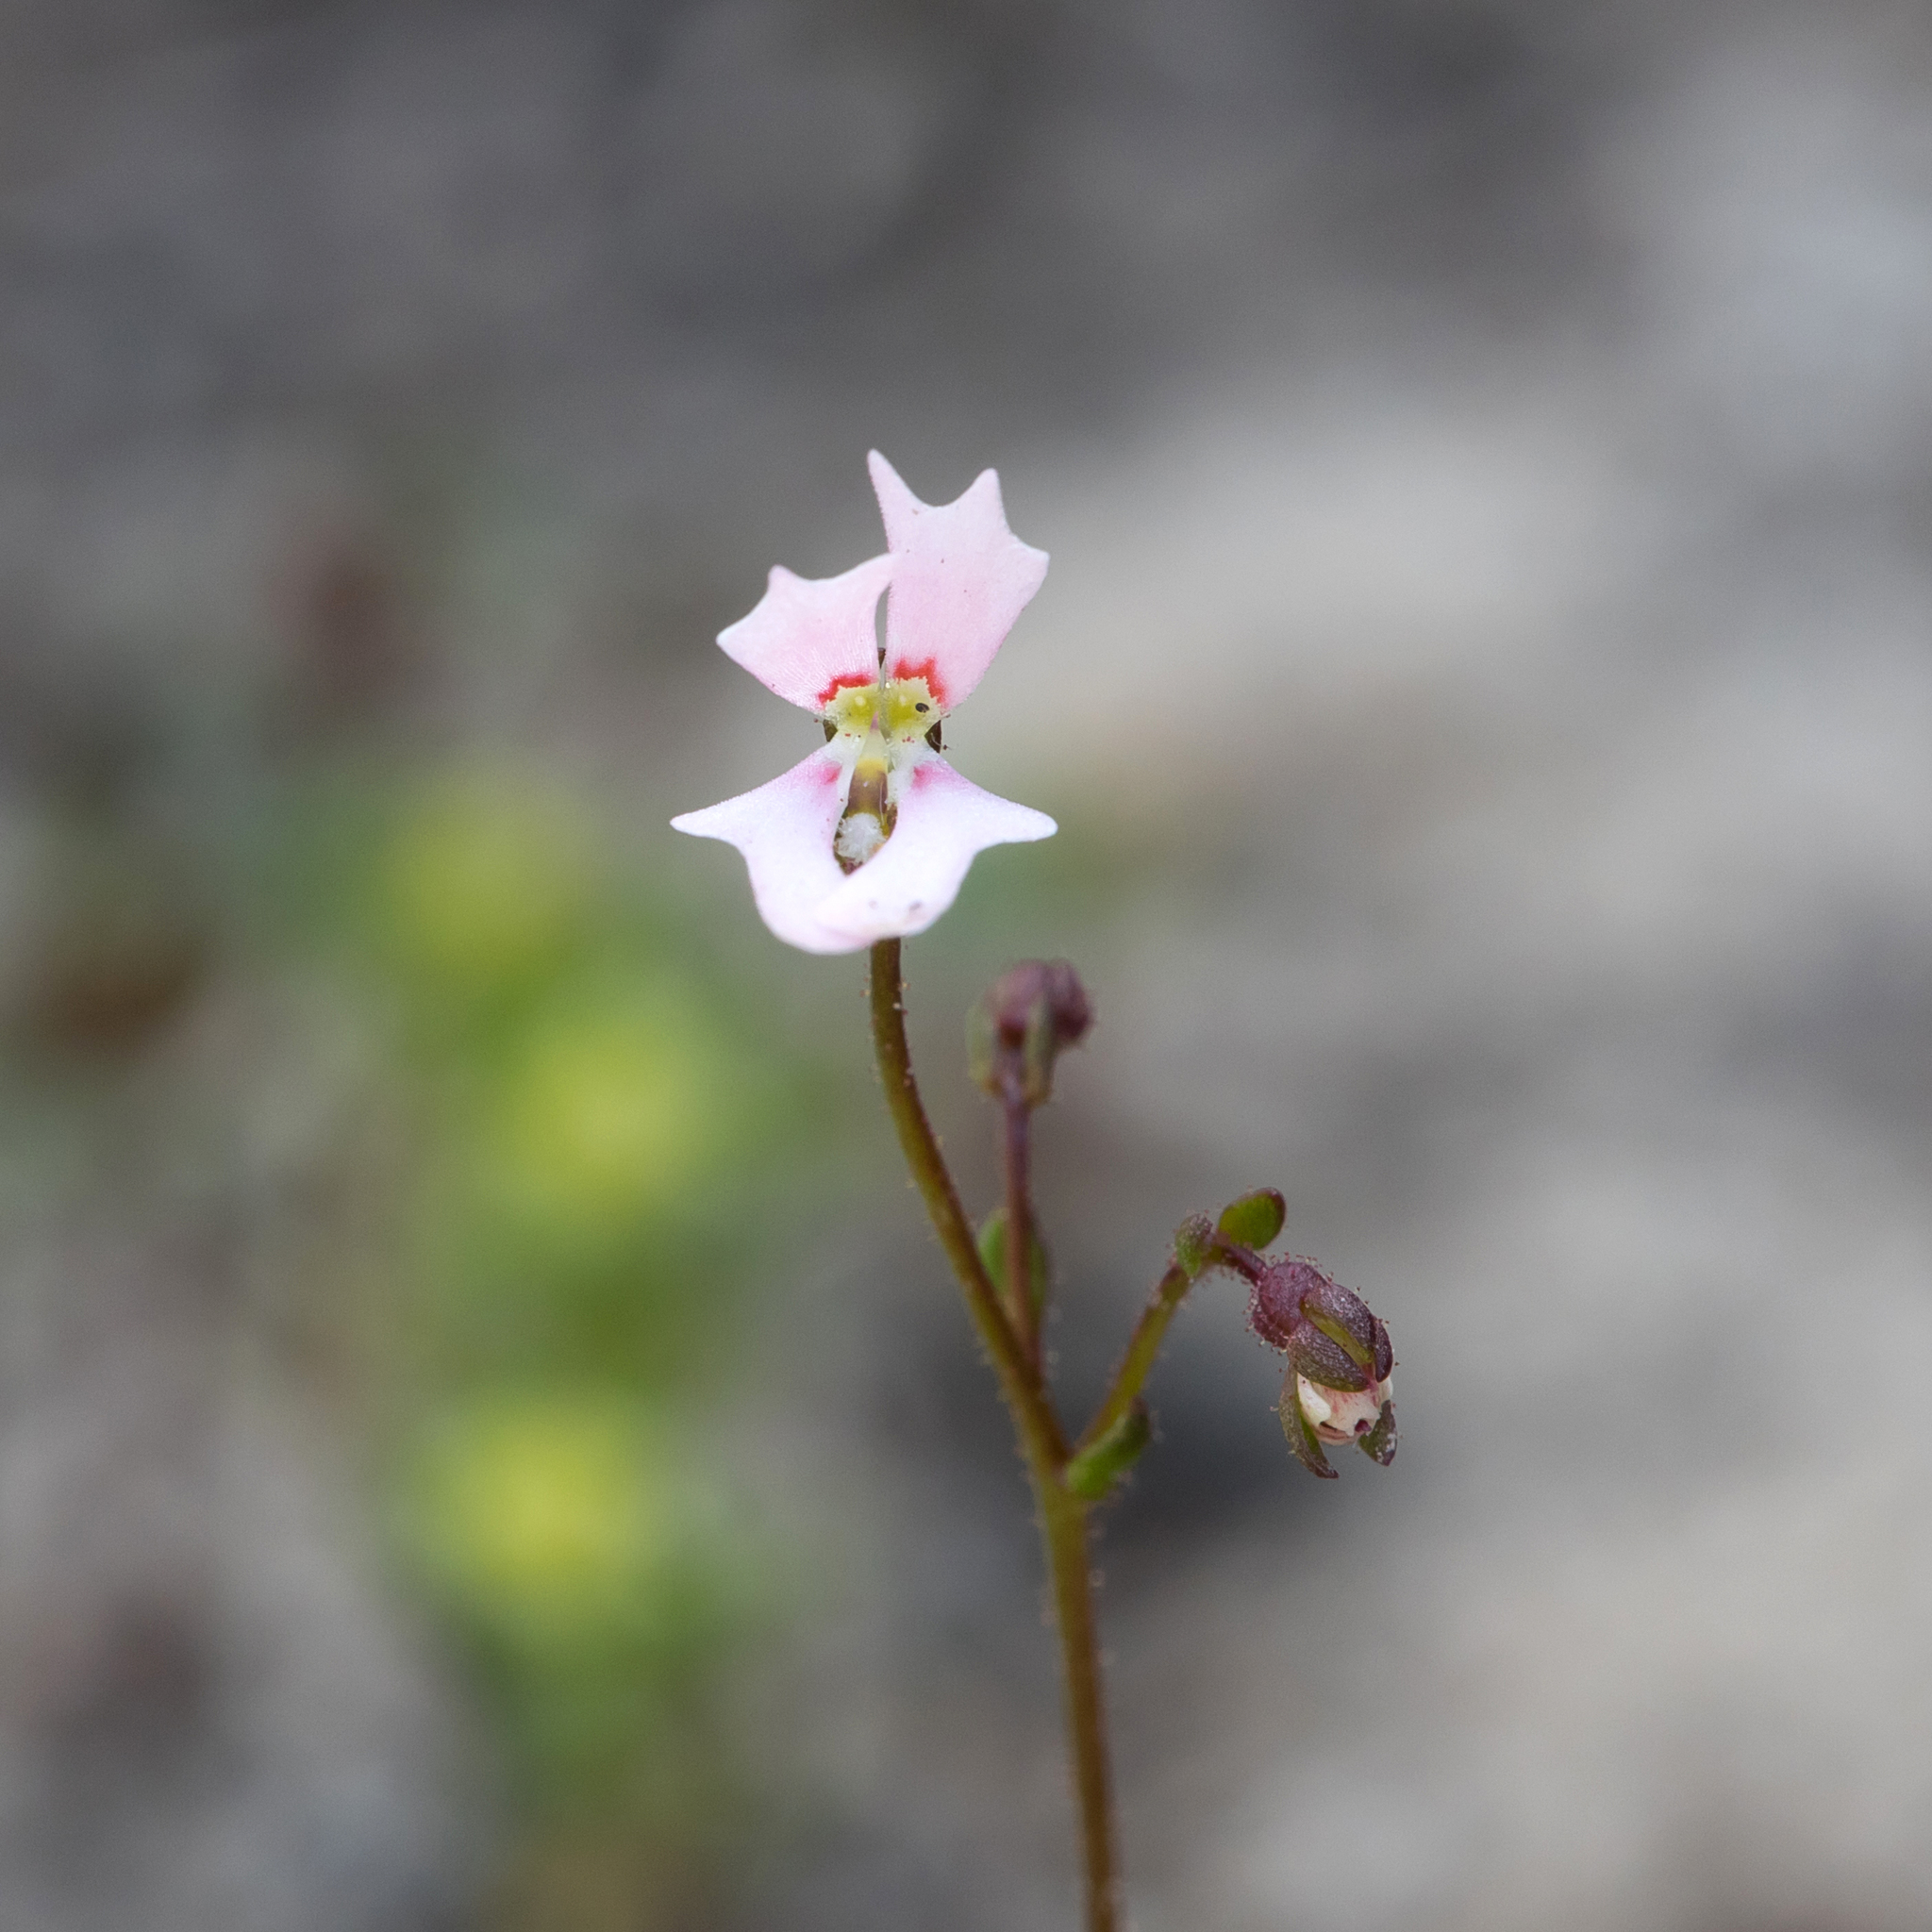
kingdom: Plantae
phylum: Tracheophyta
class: Magnoliopsida
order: Asterales
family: Stylidiaceae
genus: Stylidium
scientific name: Stylidium calcaratum
